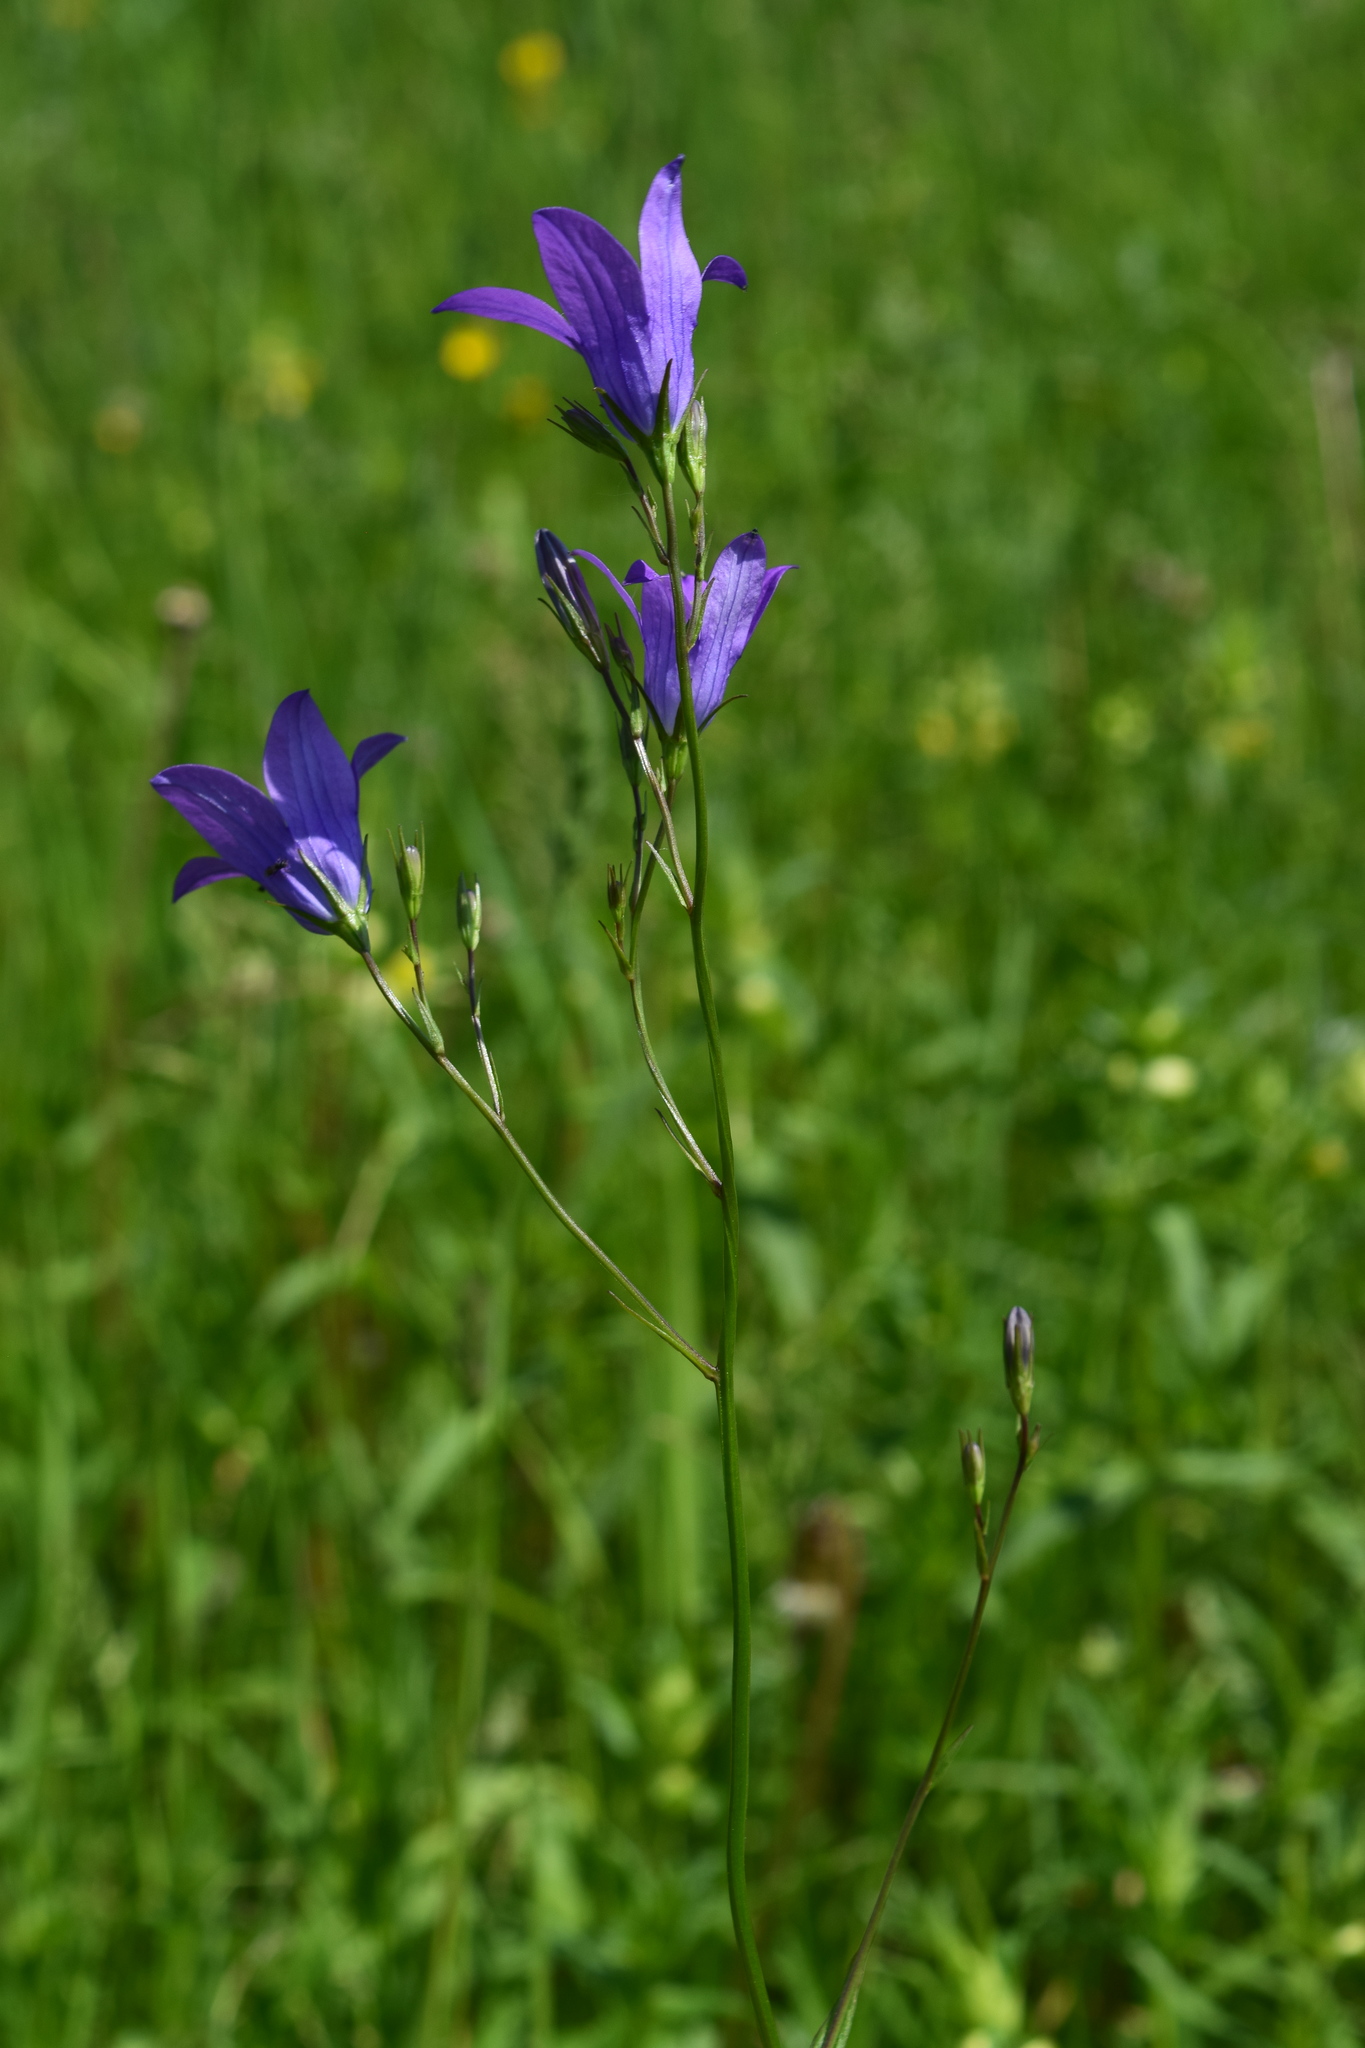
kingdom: Plantae
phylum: Tracheophyta
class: Magnoliopsida
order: Asterales
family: Campanulaceae
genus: Campanula
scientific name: Campanula patula
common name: Spreading bellflower
